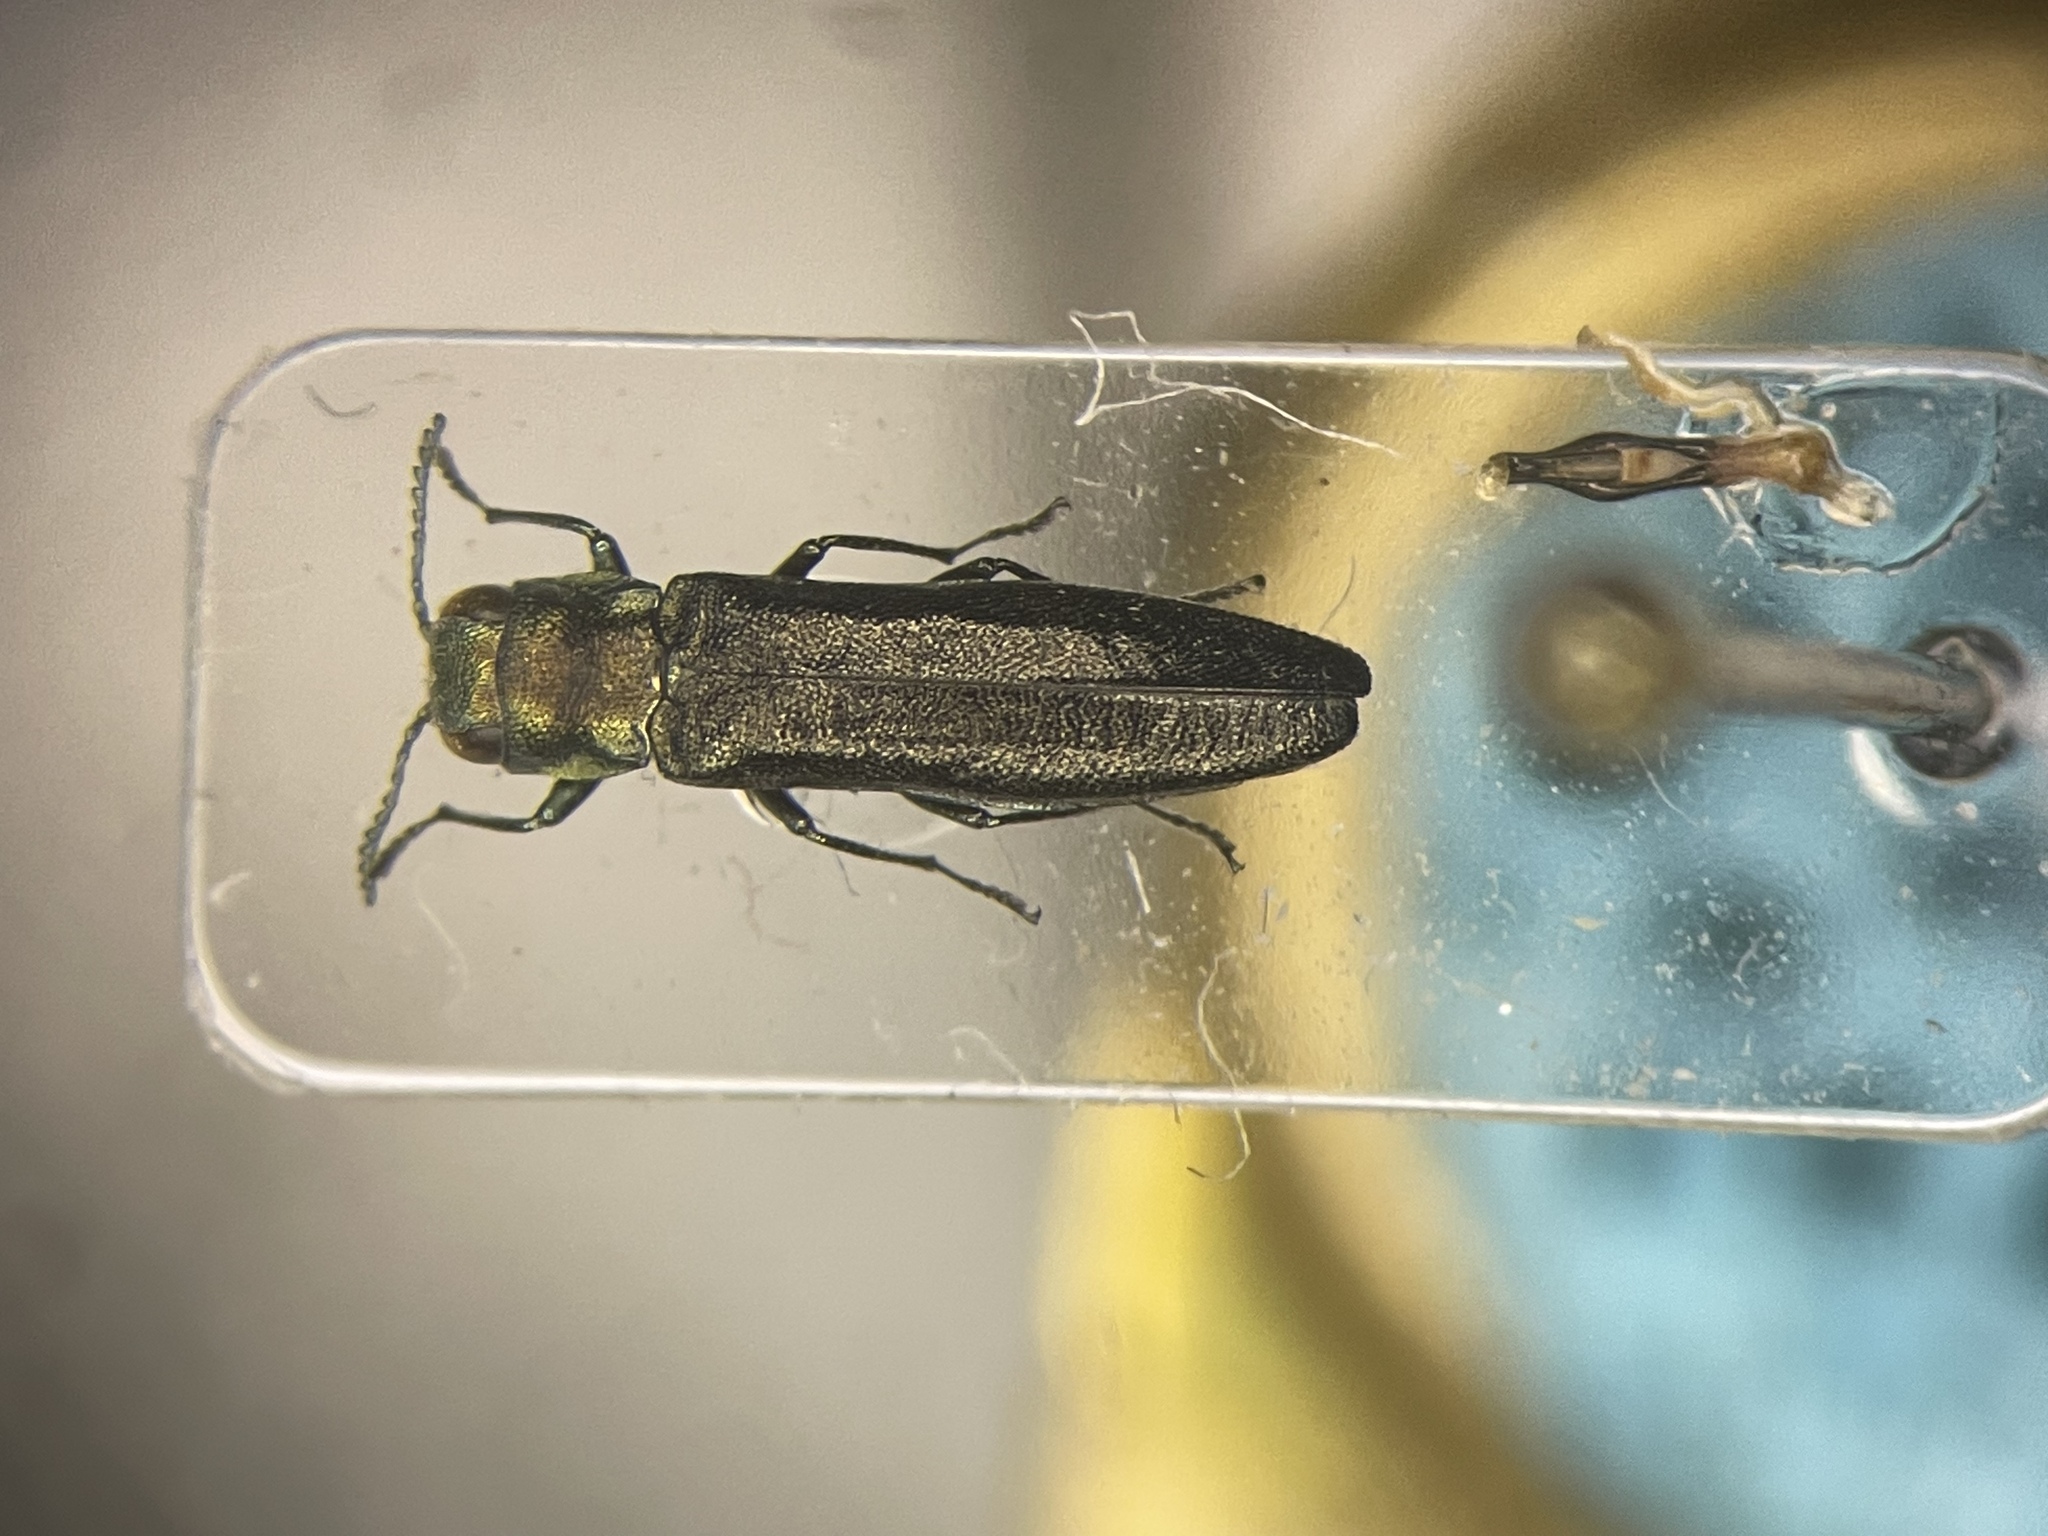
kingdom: Animalia
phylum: Arthropoda
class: Insecta
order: Coleoptera
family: Buprestidae
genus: Agrilus
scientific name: Agrilus juglandis
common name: Butternut agrilus
